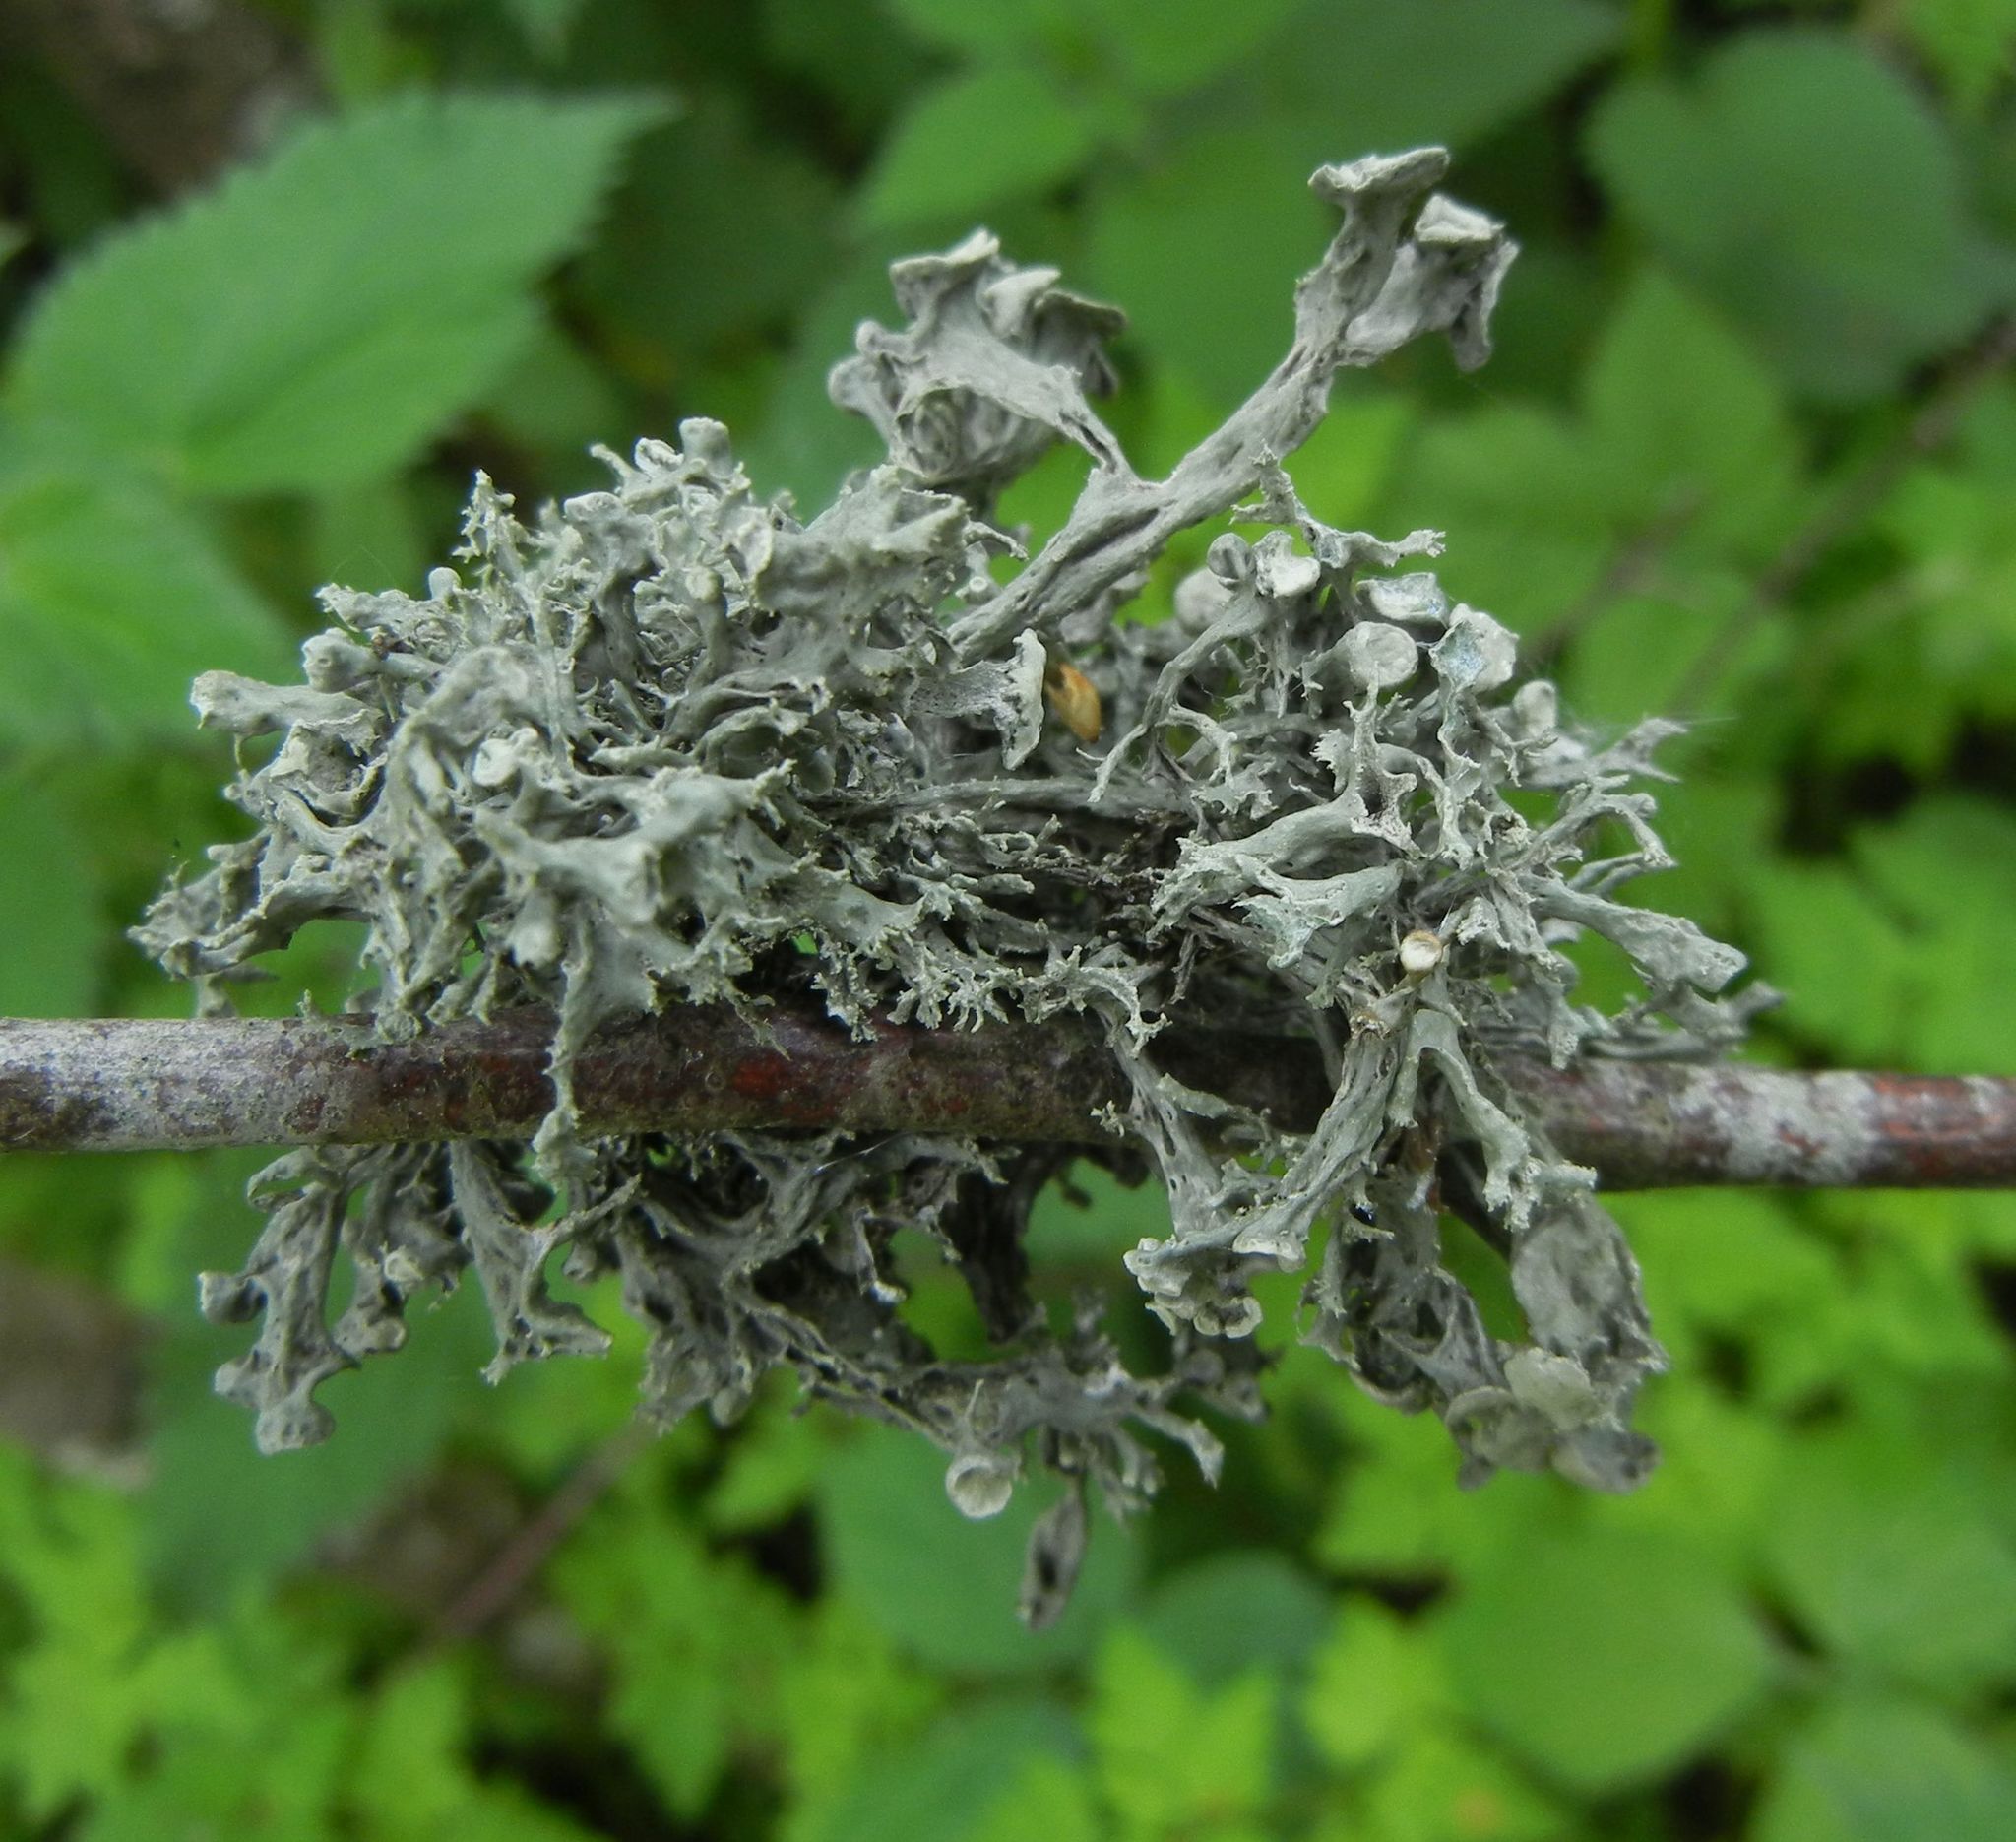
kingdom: Fungi
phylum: Ascomycota
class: Lecanoromycetes
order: Lecanorales
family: Ramalinaceae
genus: Ramalina
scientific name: Ramalina fastigiata
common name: Dotted ribbon lichen
